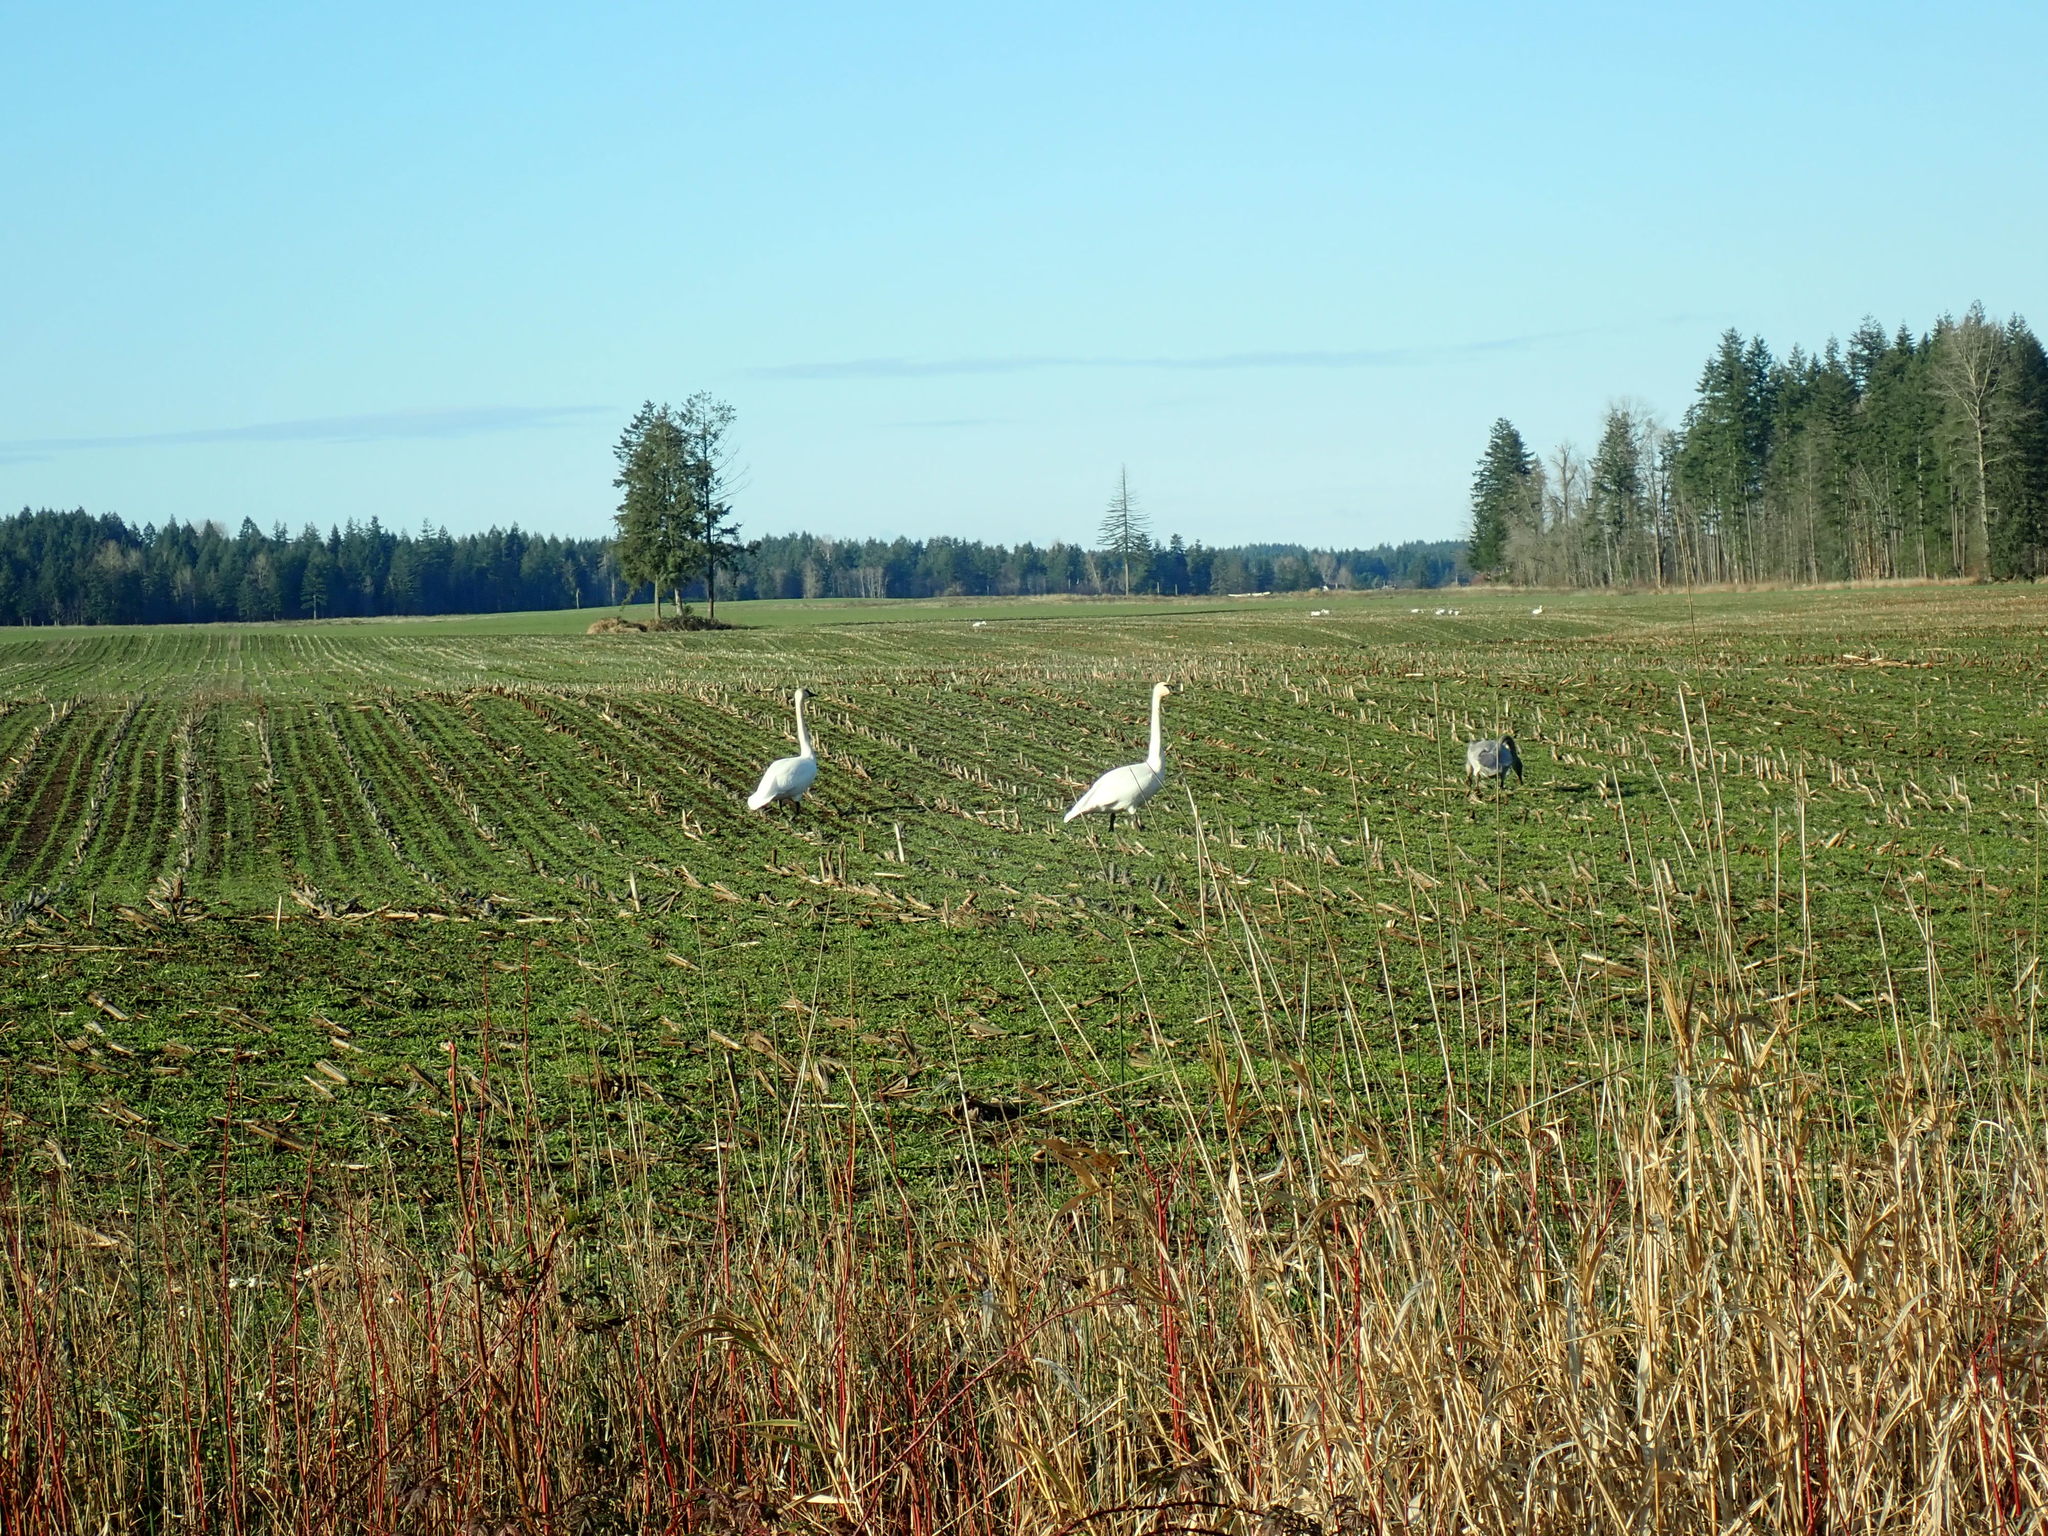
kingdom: Animalia
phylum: Chordata
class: Aves
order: Anseriformes
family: Anatidae
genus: Cygnus
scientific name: Cygnus buccinator
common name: Trumpeter swan
